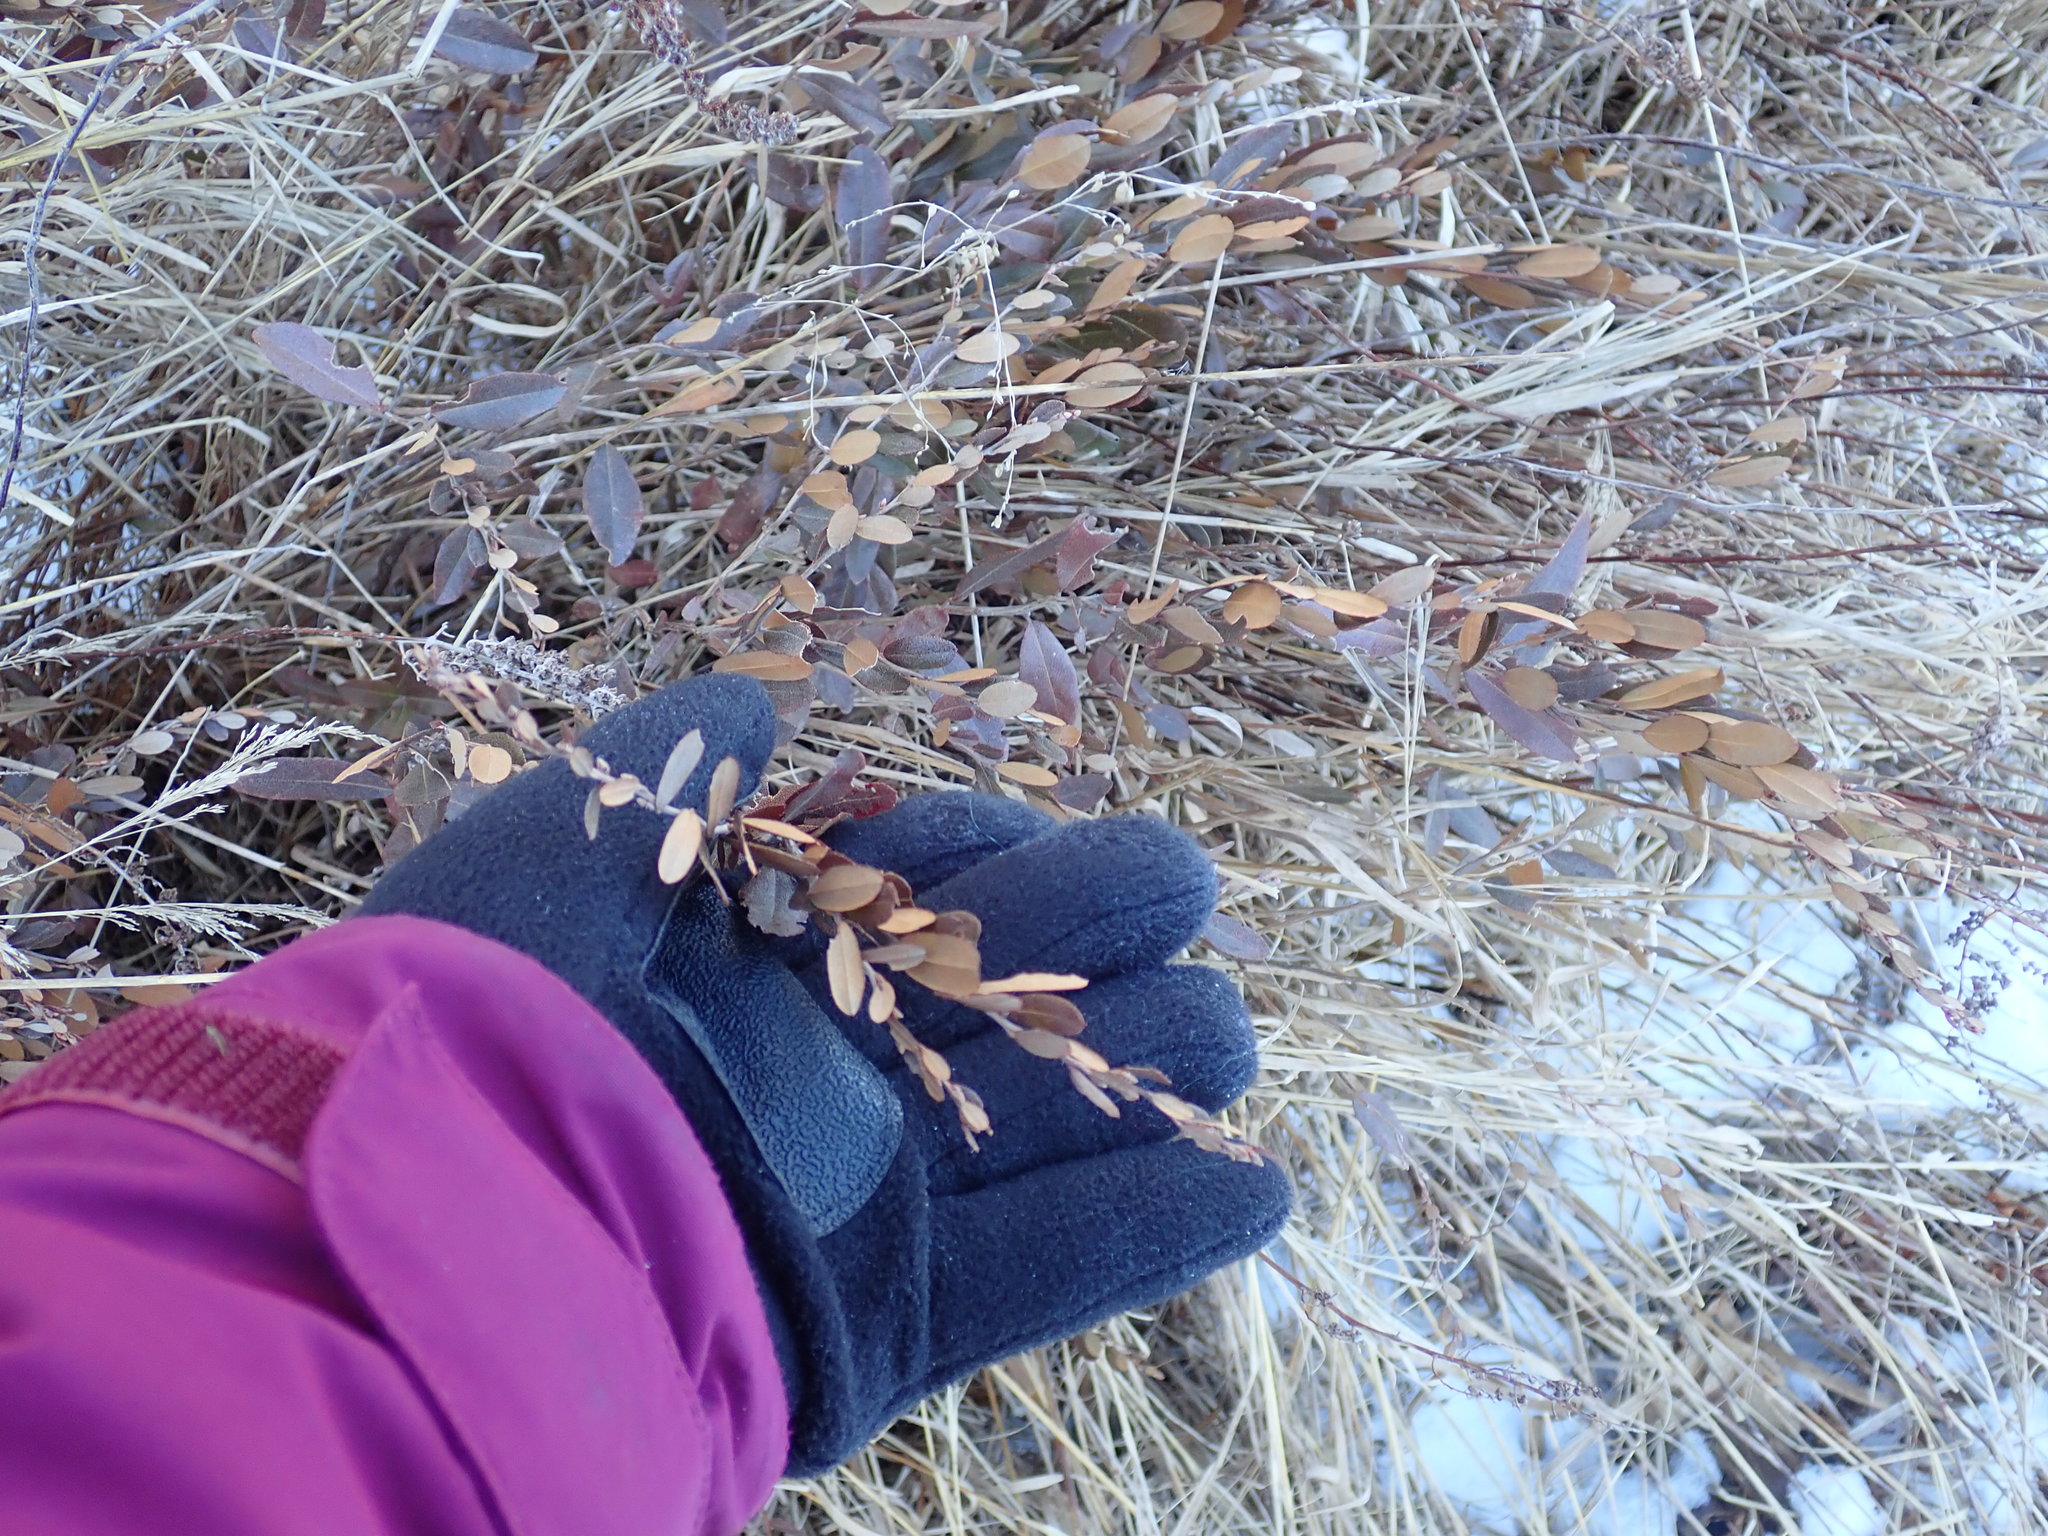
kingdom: Plantae
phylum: Tracheophyta
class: Magnoliopsida
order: Ericales
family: Ericaceae
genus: Chamaedaphne
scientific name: Chamaedaphne calyculata
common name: Leatherleaf
